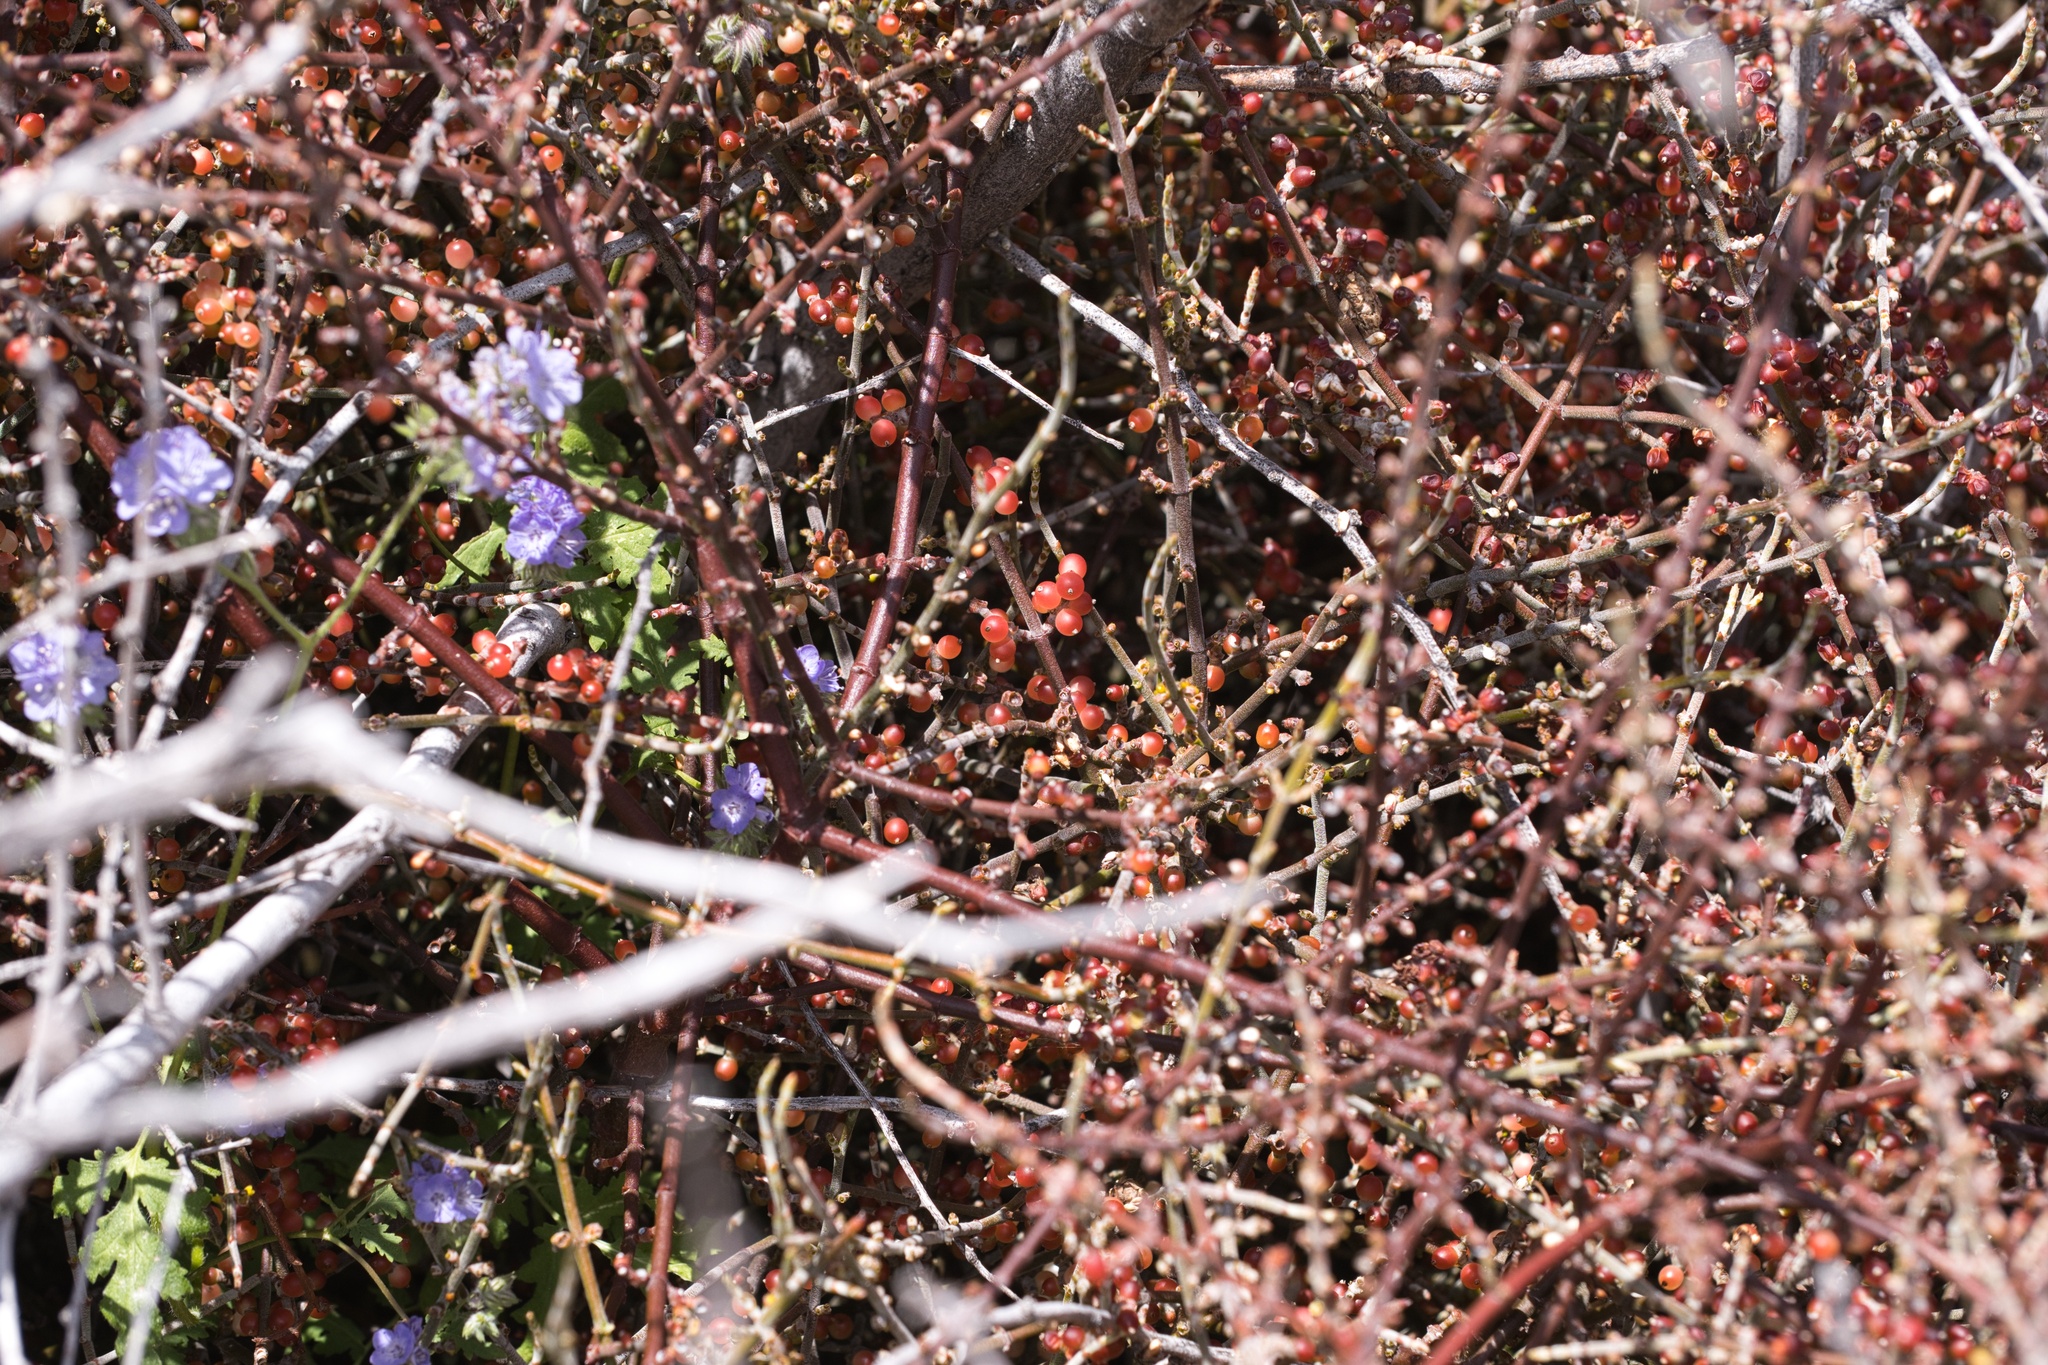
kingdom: Plantae
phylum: Tracheophyta
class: Magnoliopsida
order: Santalales
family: Viscaceae
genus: Phoradendron
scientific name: Phoradendron californicum
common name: Acacia mistletoe
